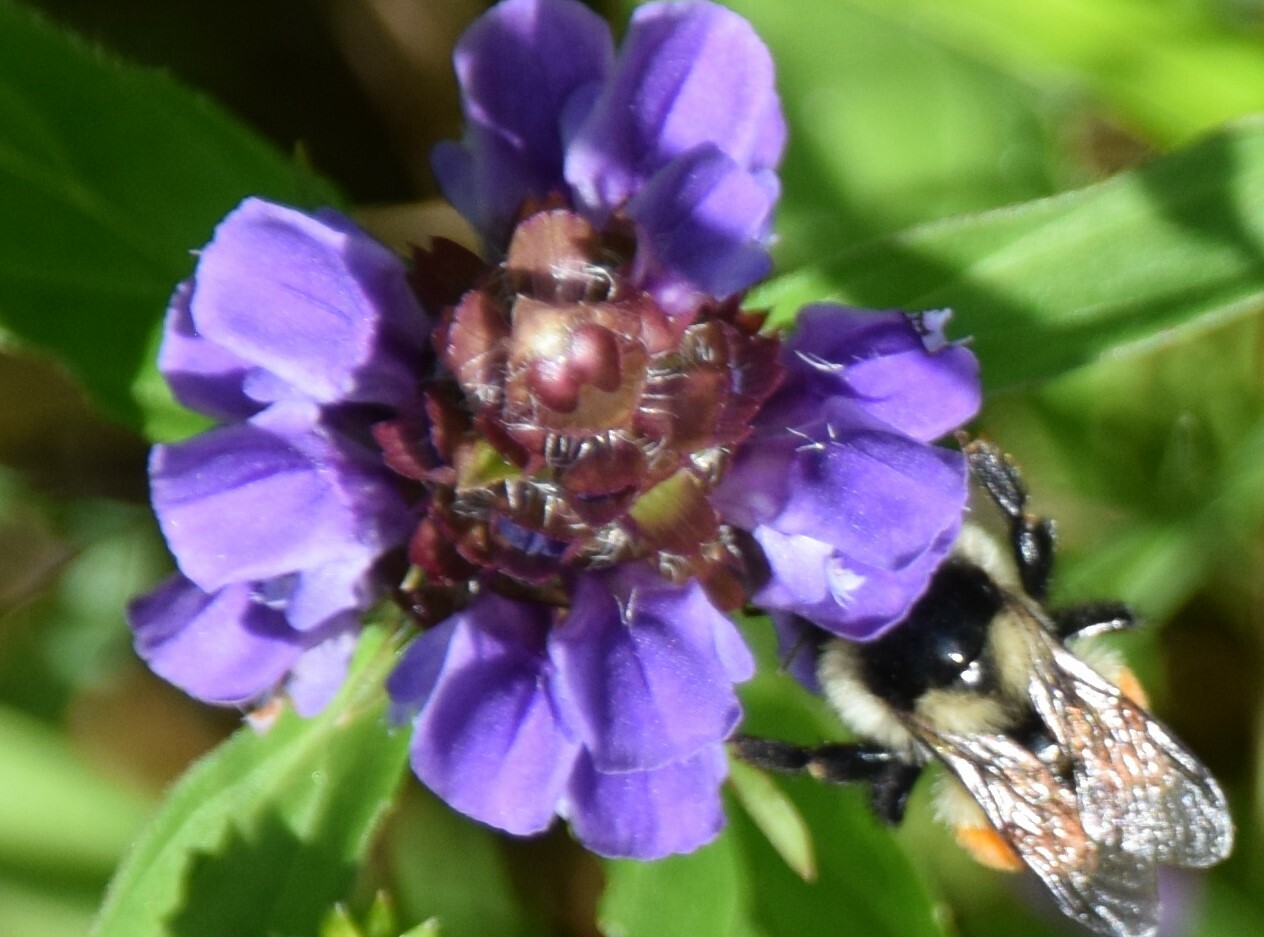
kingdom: Animalia
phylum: Arthropoda
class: Insecta
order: Hymenoptera
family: Apidae
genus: Bombus
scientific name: Bombus ternarius
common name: Tri-colored bumble bee
